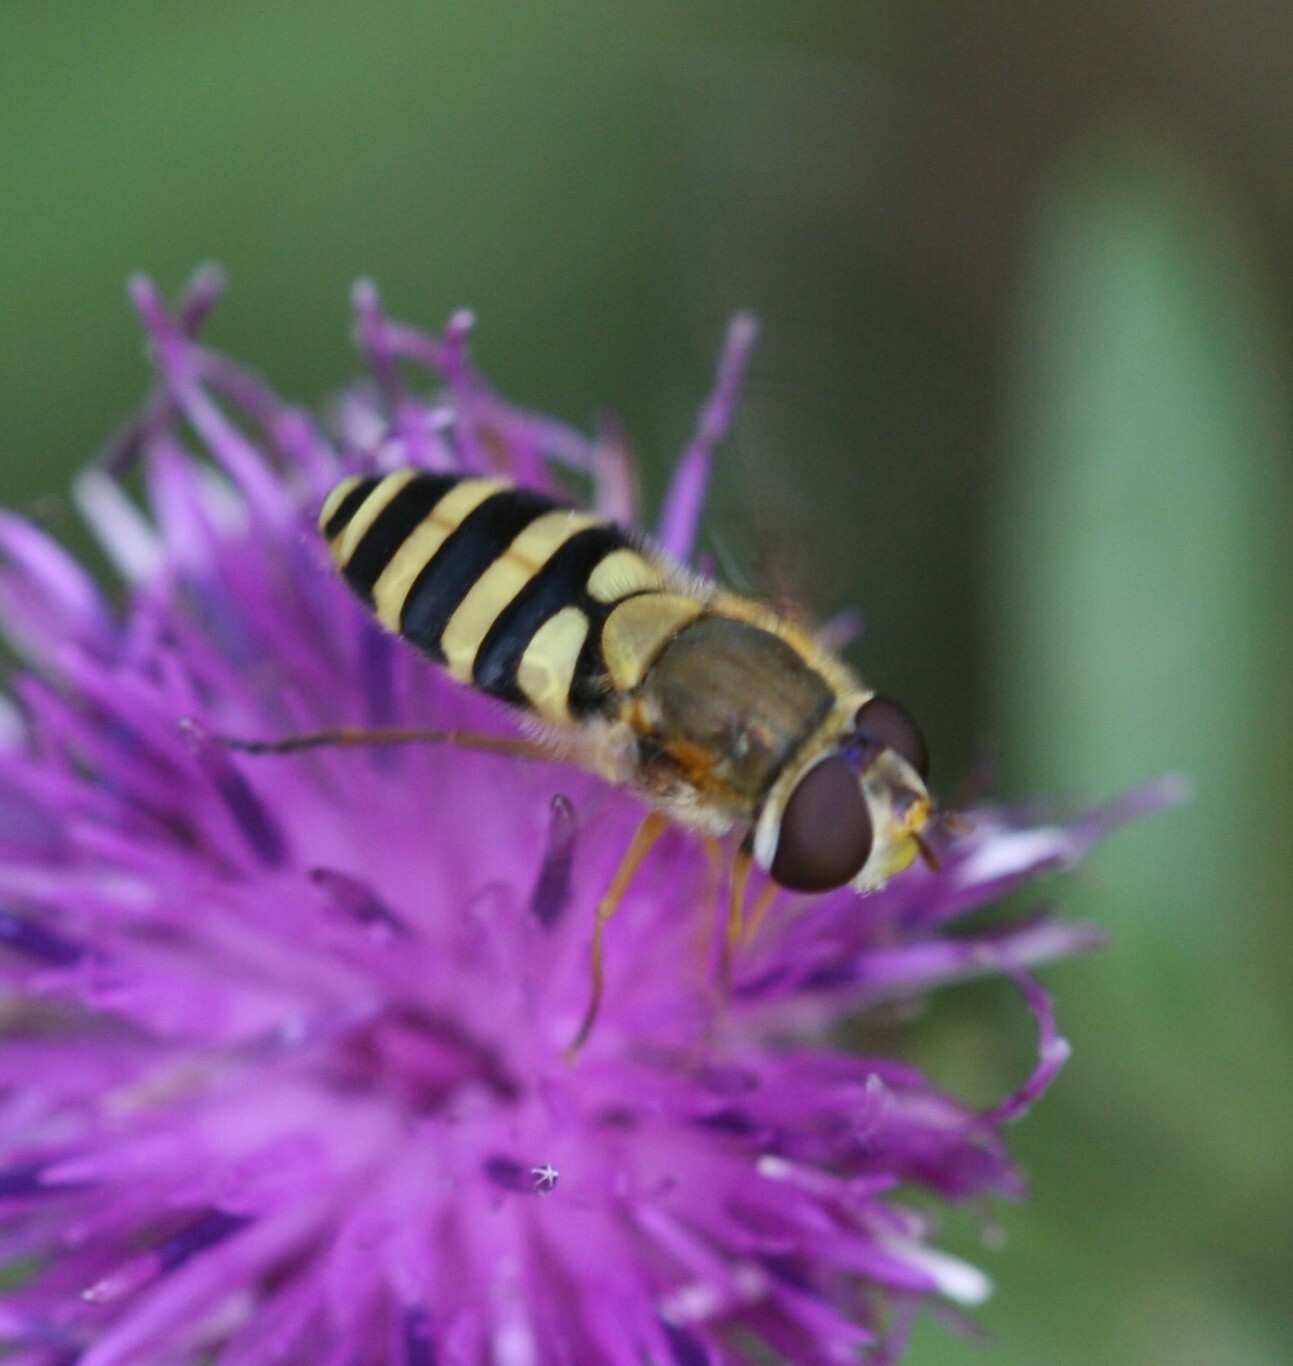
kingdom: Animalia
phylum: Arthropoda
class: Insecta
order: Diptera
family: Syrphidae
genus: Syrphus
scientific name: Syrphus ribesii
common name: Common flower fly
